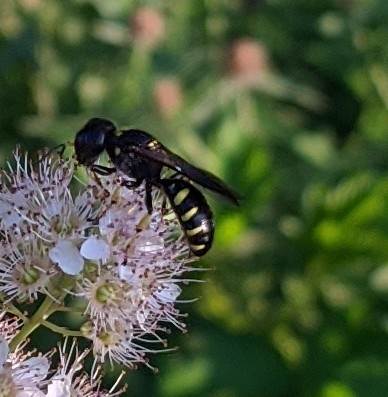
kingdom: Animalia
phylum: Arthropoda
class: Insecta
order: Hymenoptera
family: Crabronidae
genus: Ectemnius
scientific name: Ectemnius maculosus
